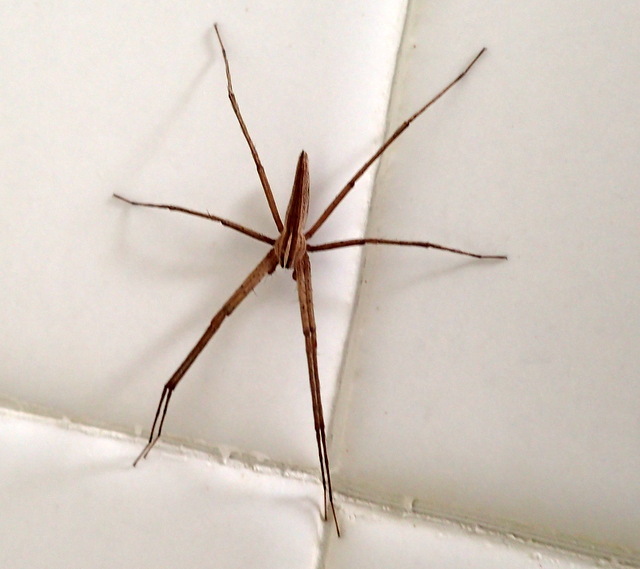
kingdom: Animalia
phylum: Arthropoda
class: Arachnida
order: Araneae
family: Pisauridae
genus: Pisaurina
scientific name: Pisaurina dubia
